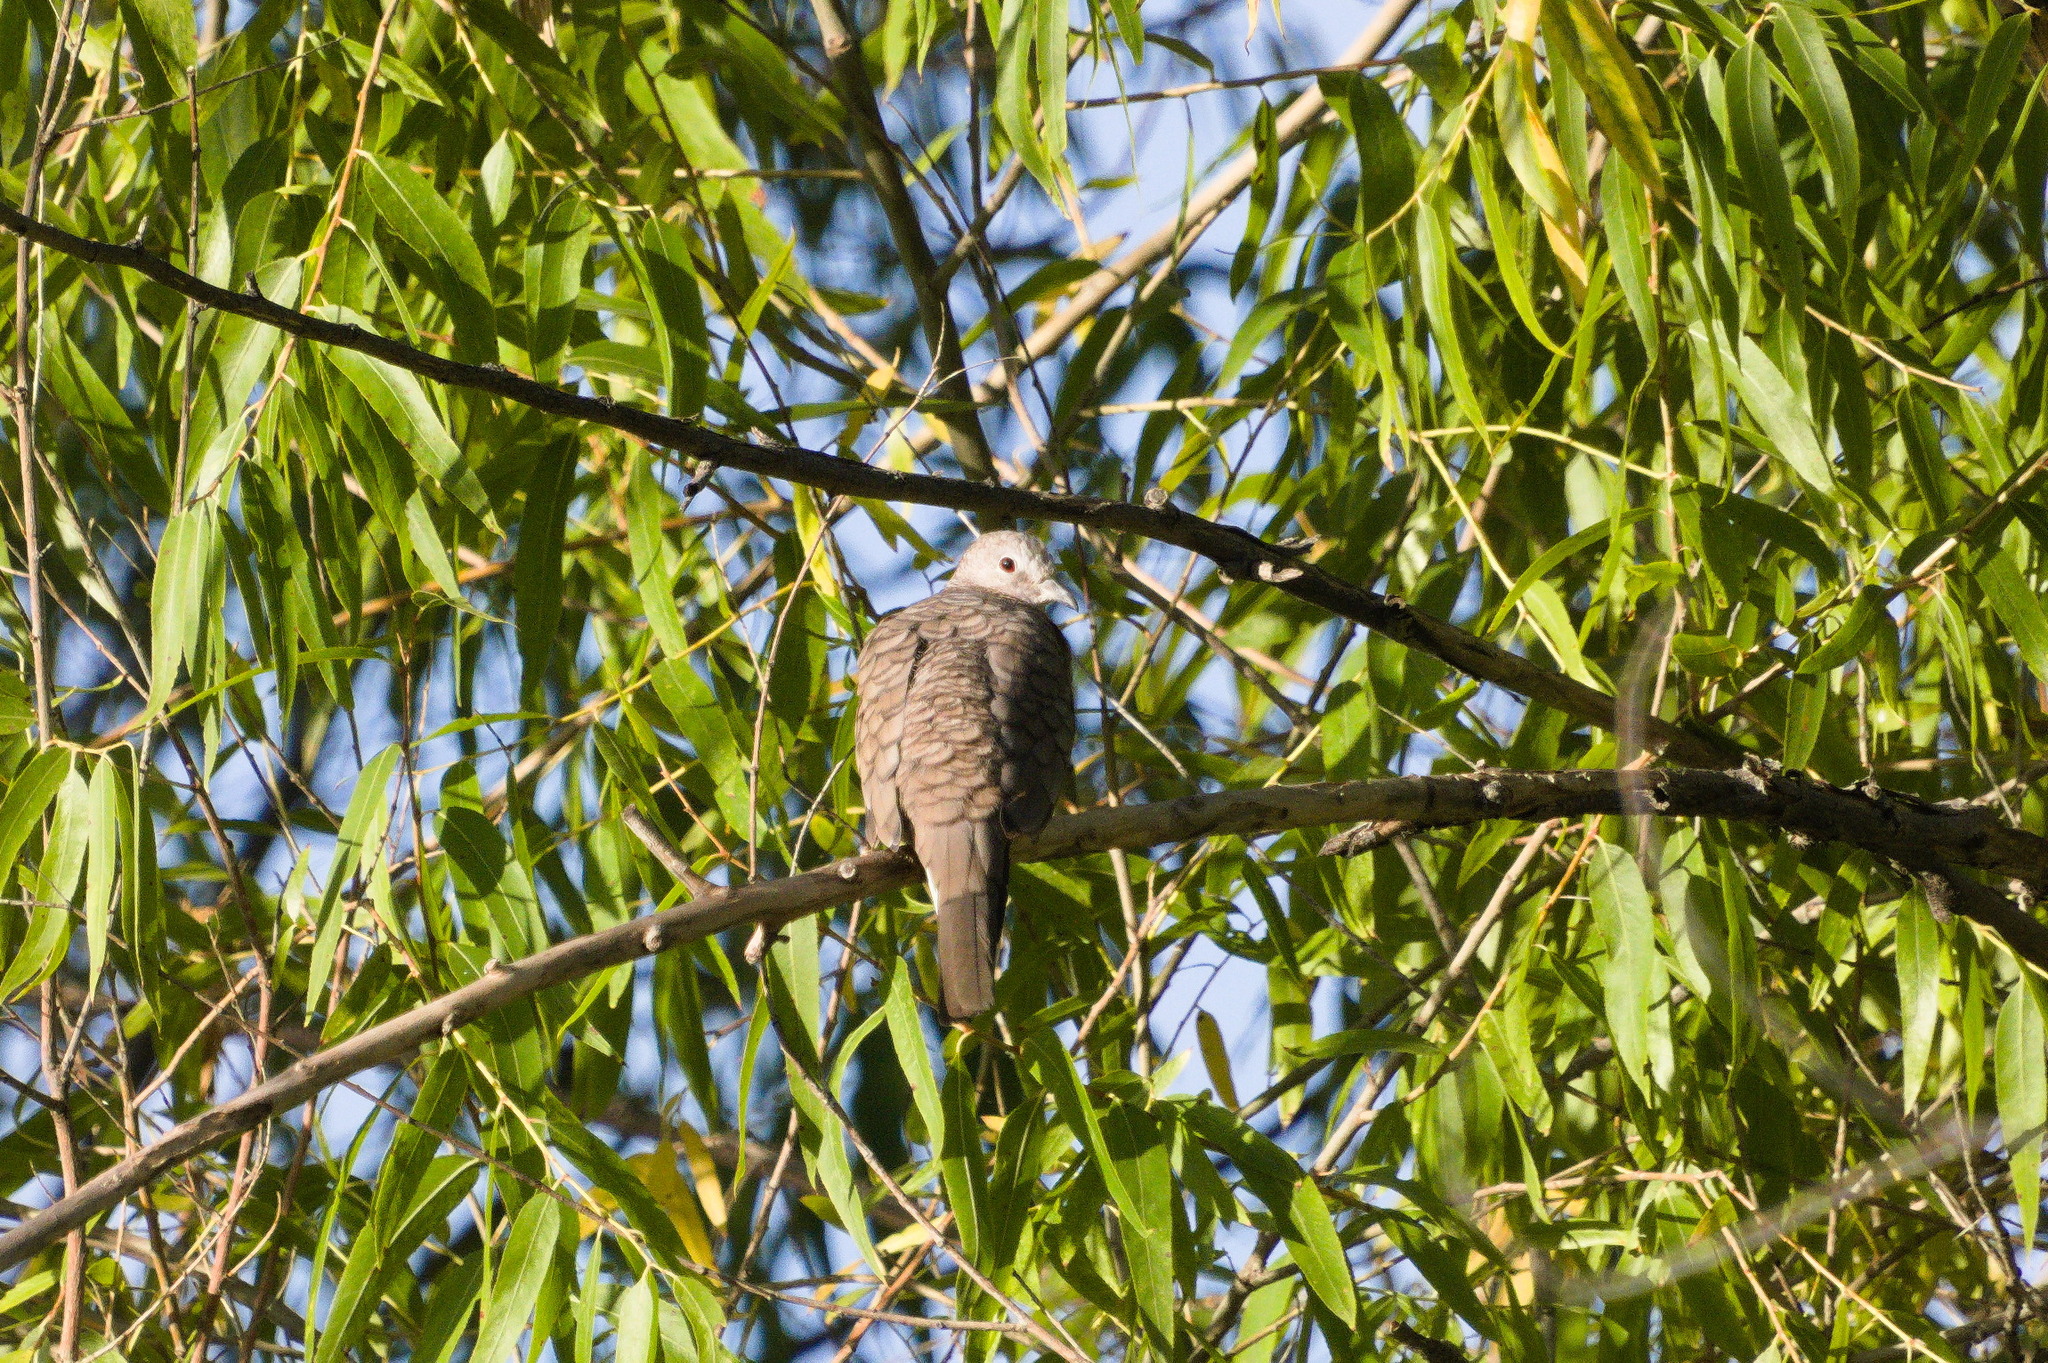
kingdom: Animalia
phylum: Chordata
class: Aves
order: Columbiformes
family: Columbidae
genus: Columbina
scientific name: Columbina inca
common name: Inca dove
